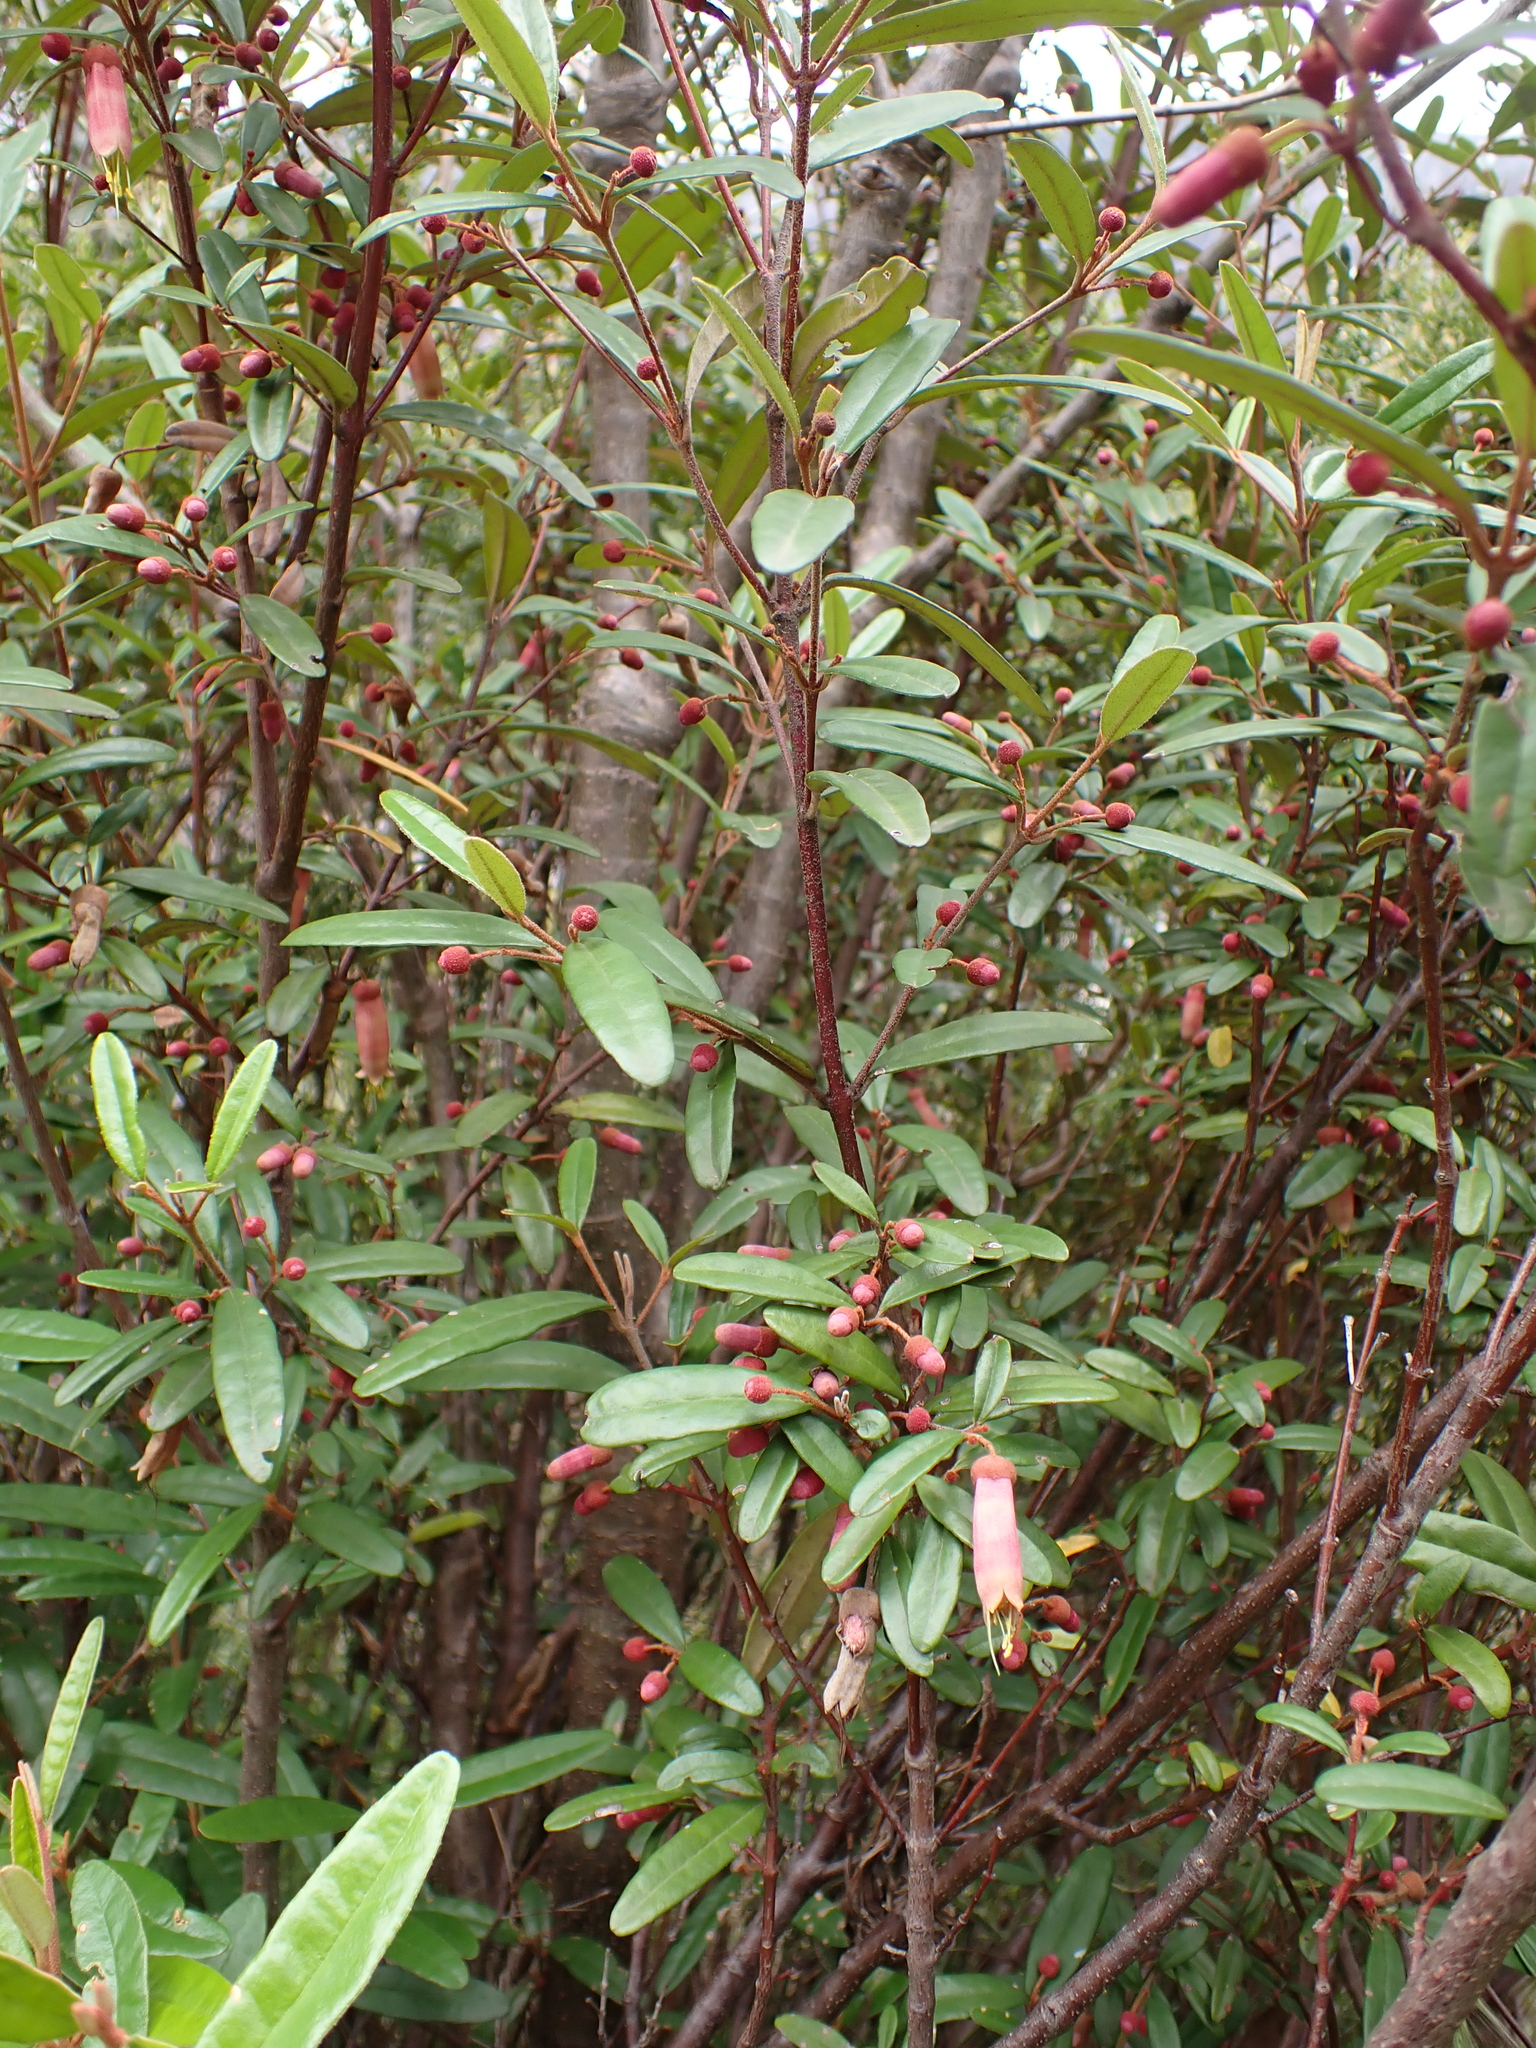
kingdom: Plantae
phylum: Tracheophyta
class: Magnoliopsida
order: Sapindales
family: Rutaceae
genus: Correa
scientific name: Correa lawrenceana
